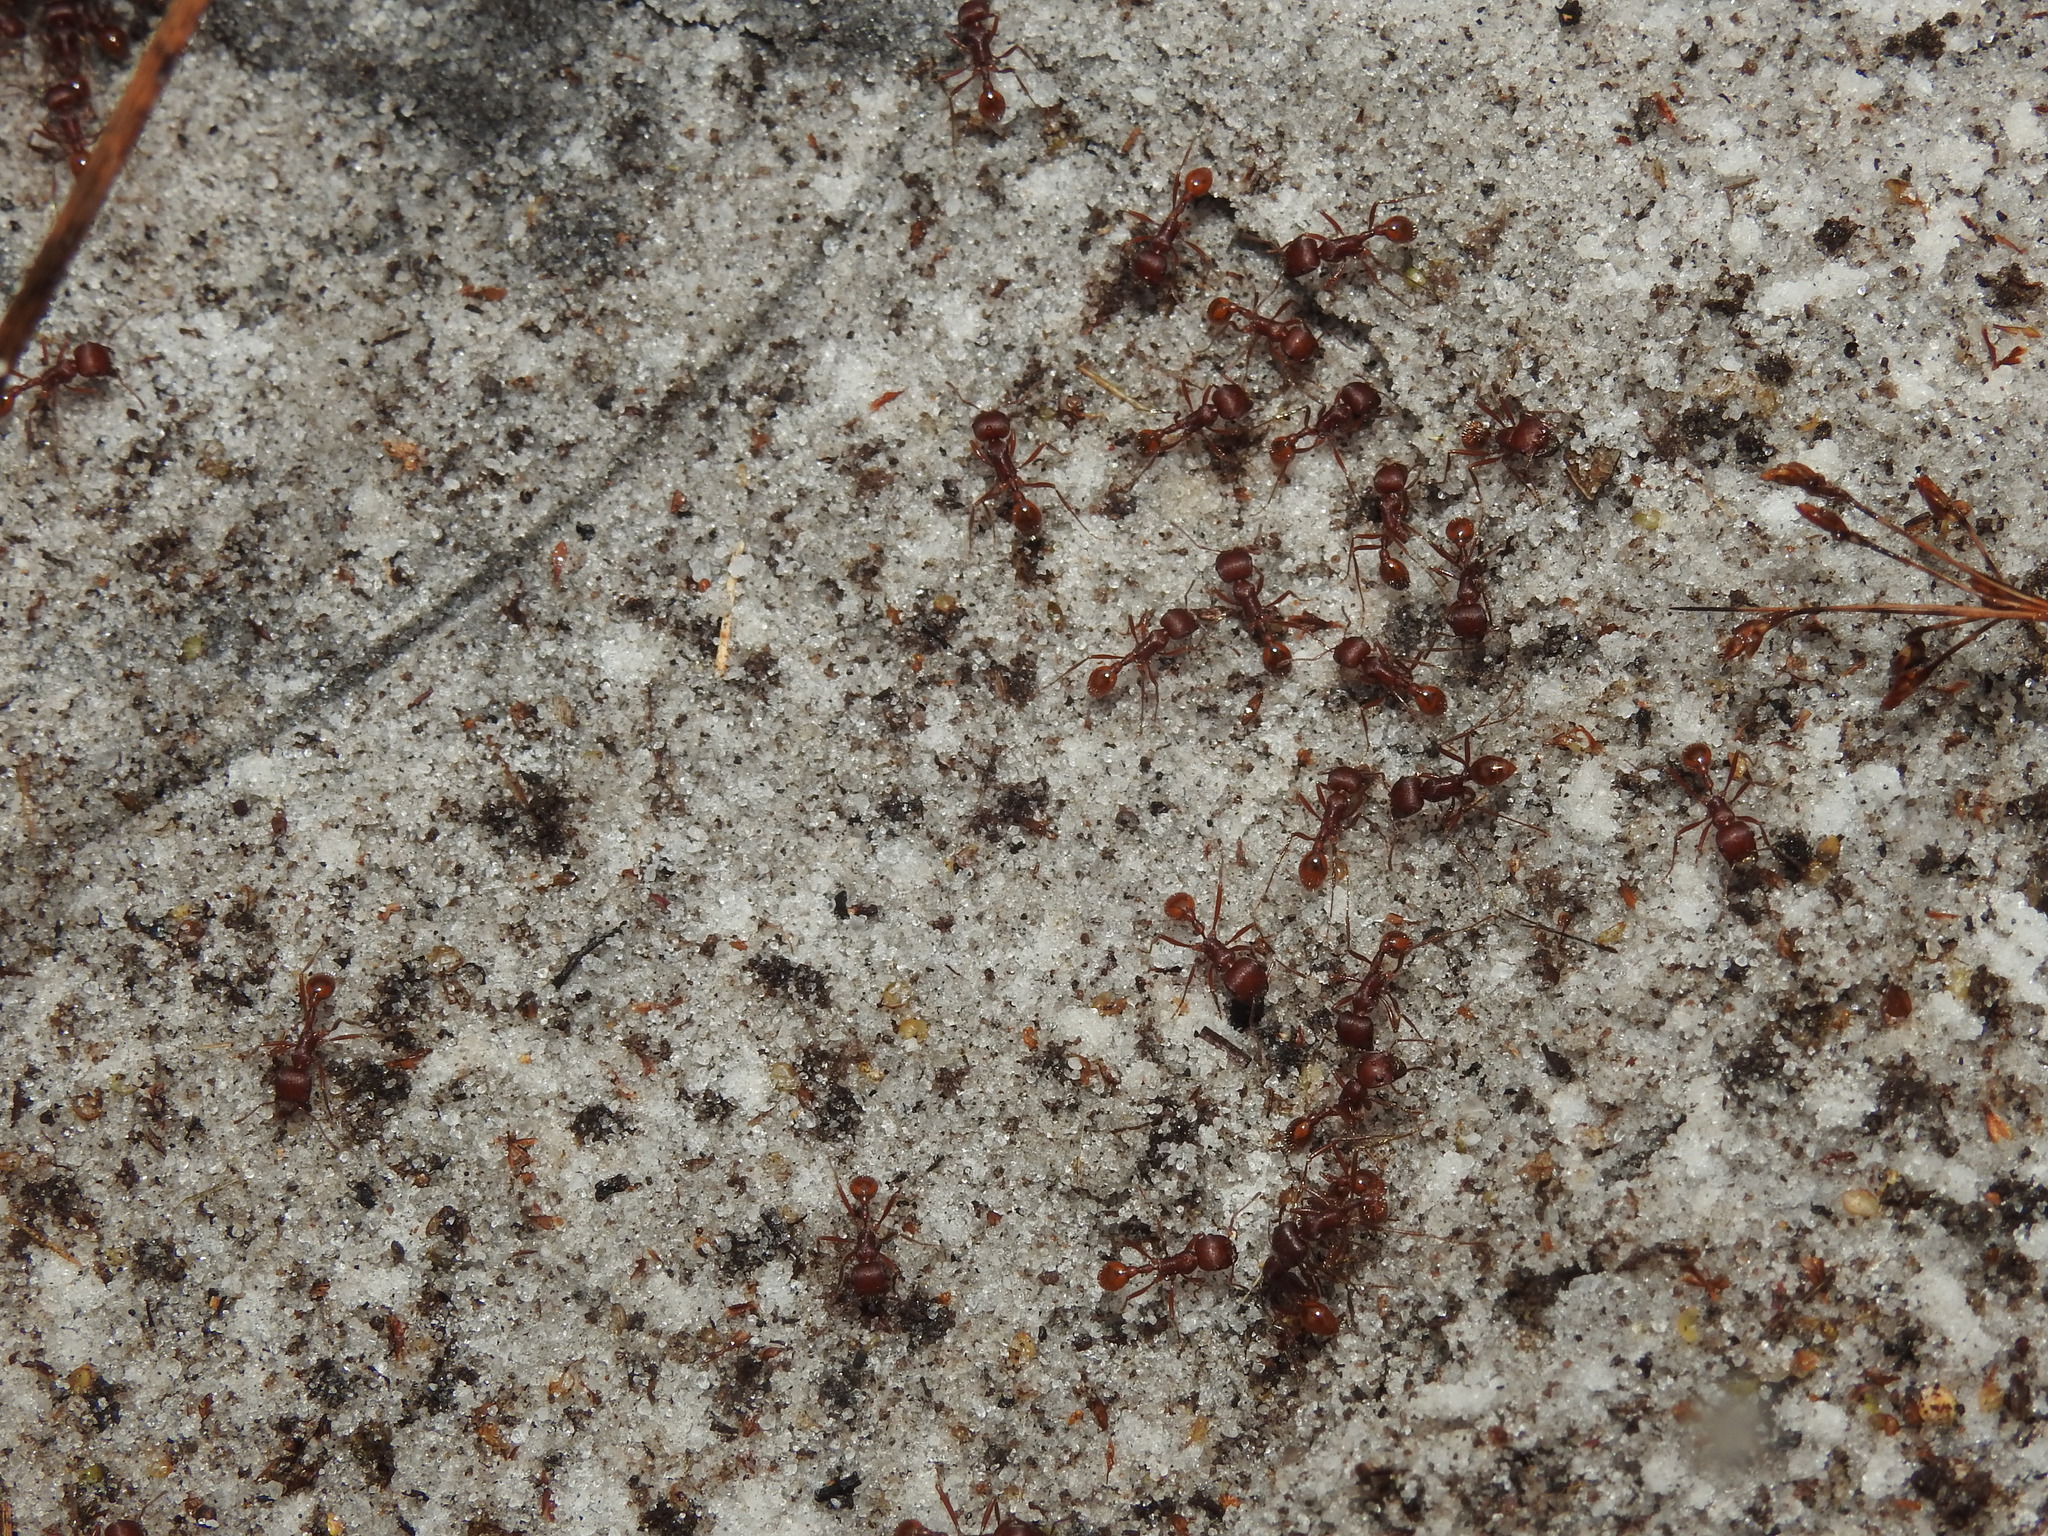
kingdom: Animalia
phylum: Arthropoda
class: Insecta
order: Hymenoptera
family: Formicidae
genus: Pogonomyrmex
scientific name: Pogonomyrmex badius
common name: Florida harvester ant
